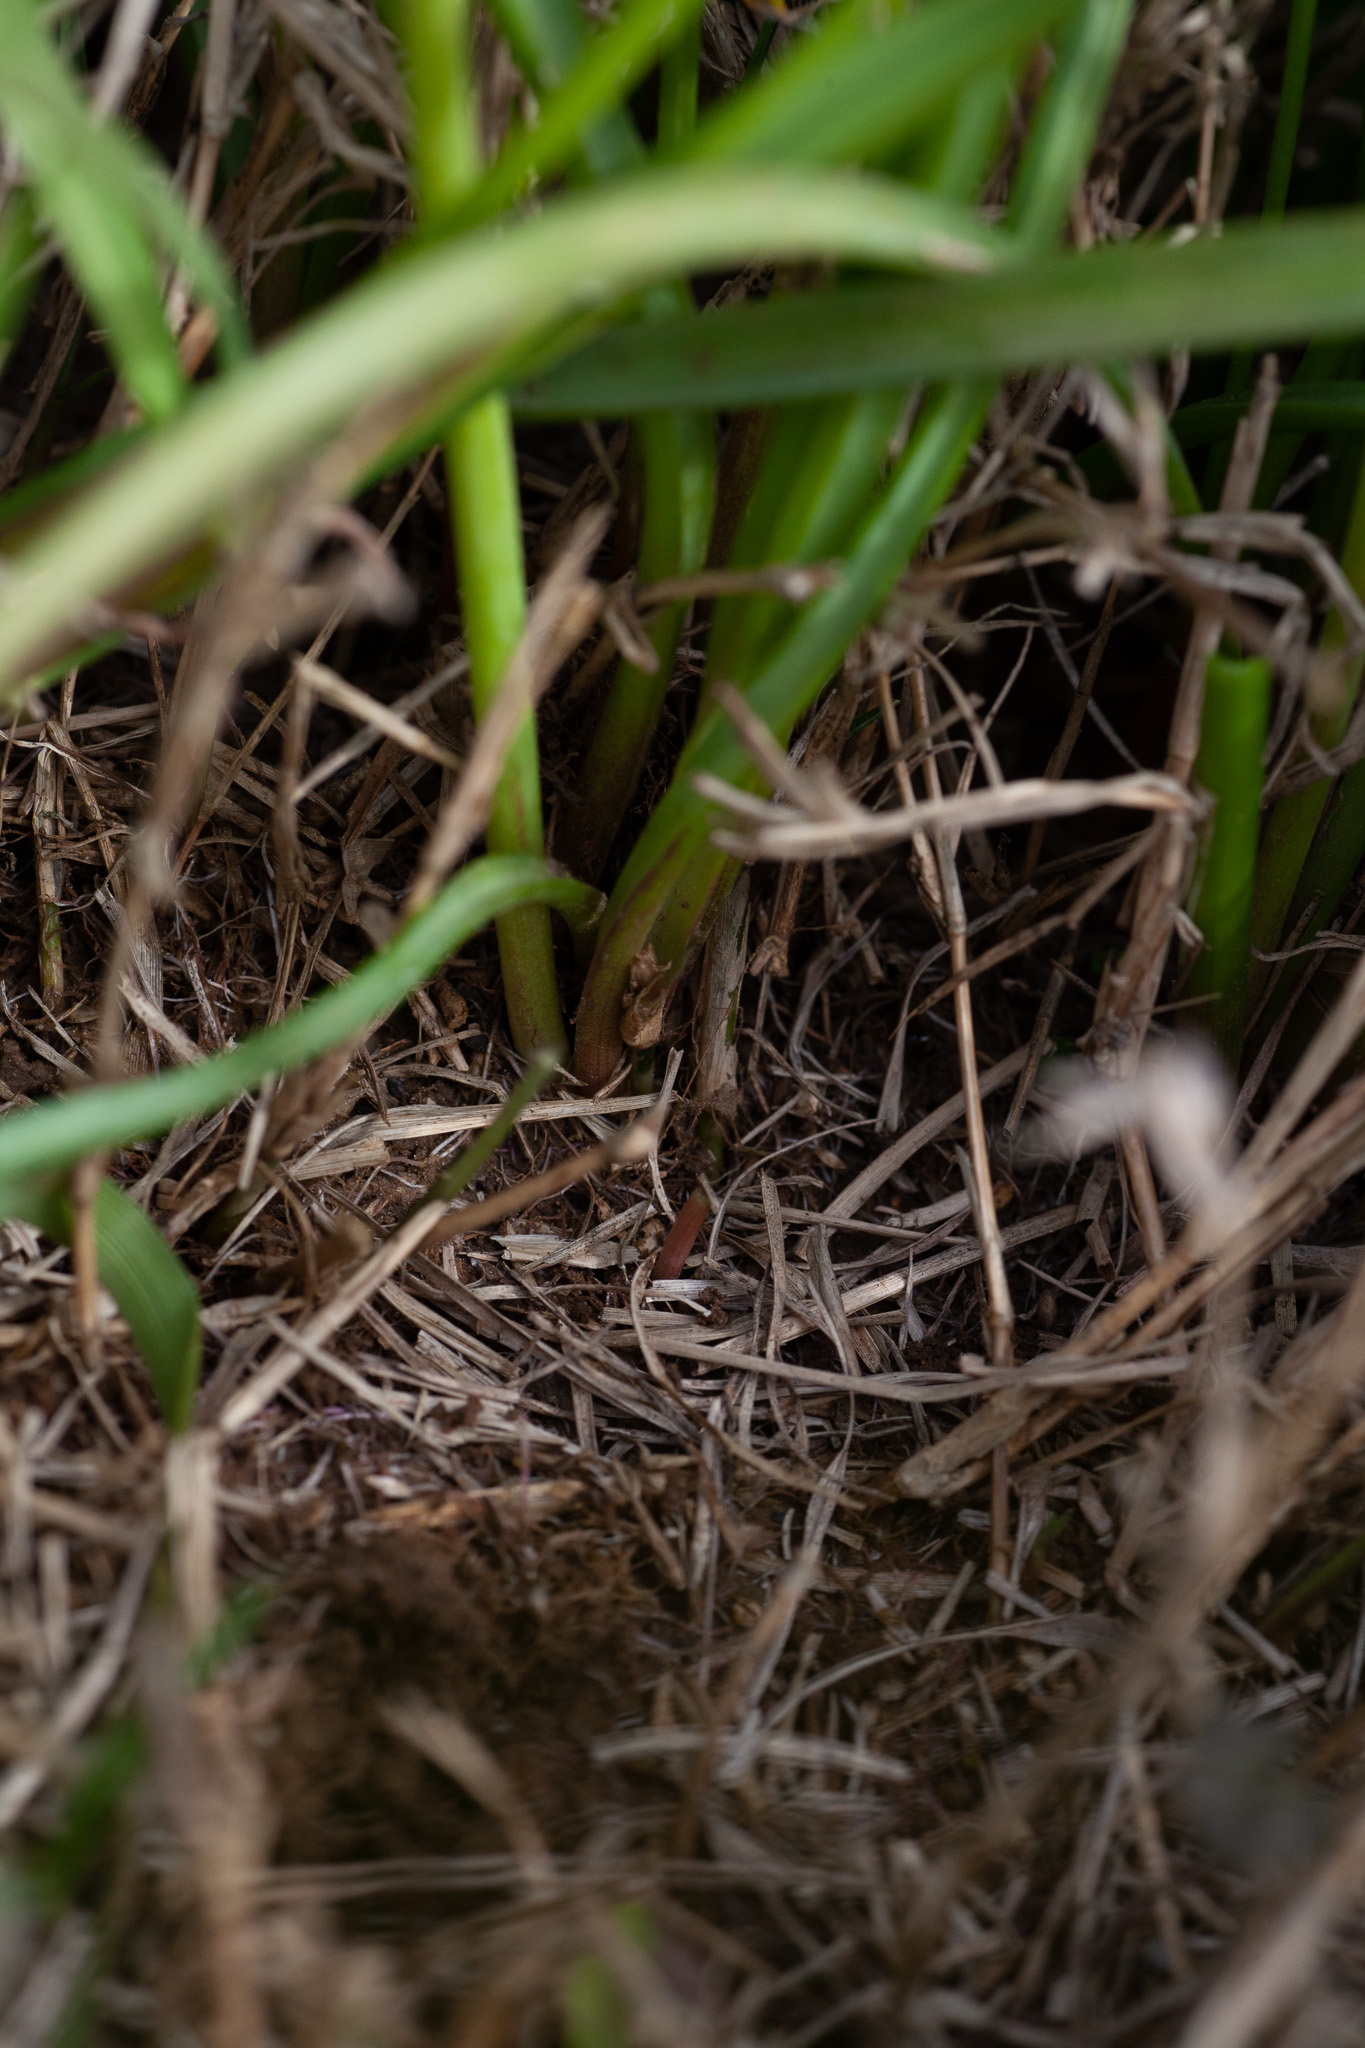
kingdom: Plantae
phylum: Tracheophyta
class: Liliopsida
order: Asparagales
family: Asparagaceae
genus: Muscari
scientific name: Muscari botryoides
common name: Compact grape-hyacinth
